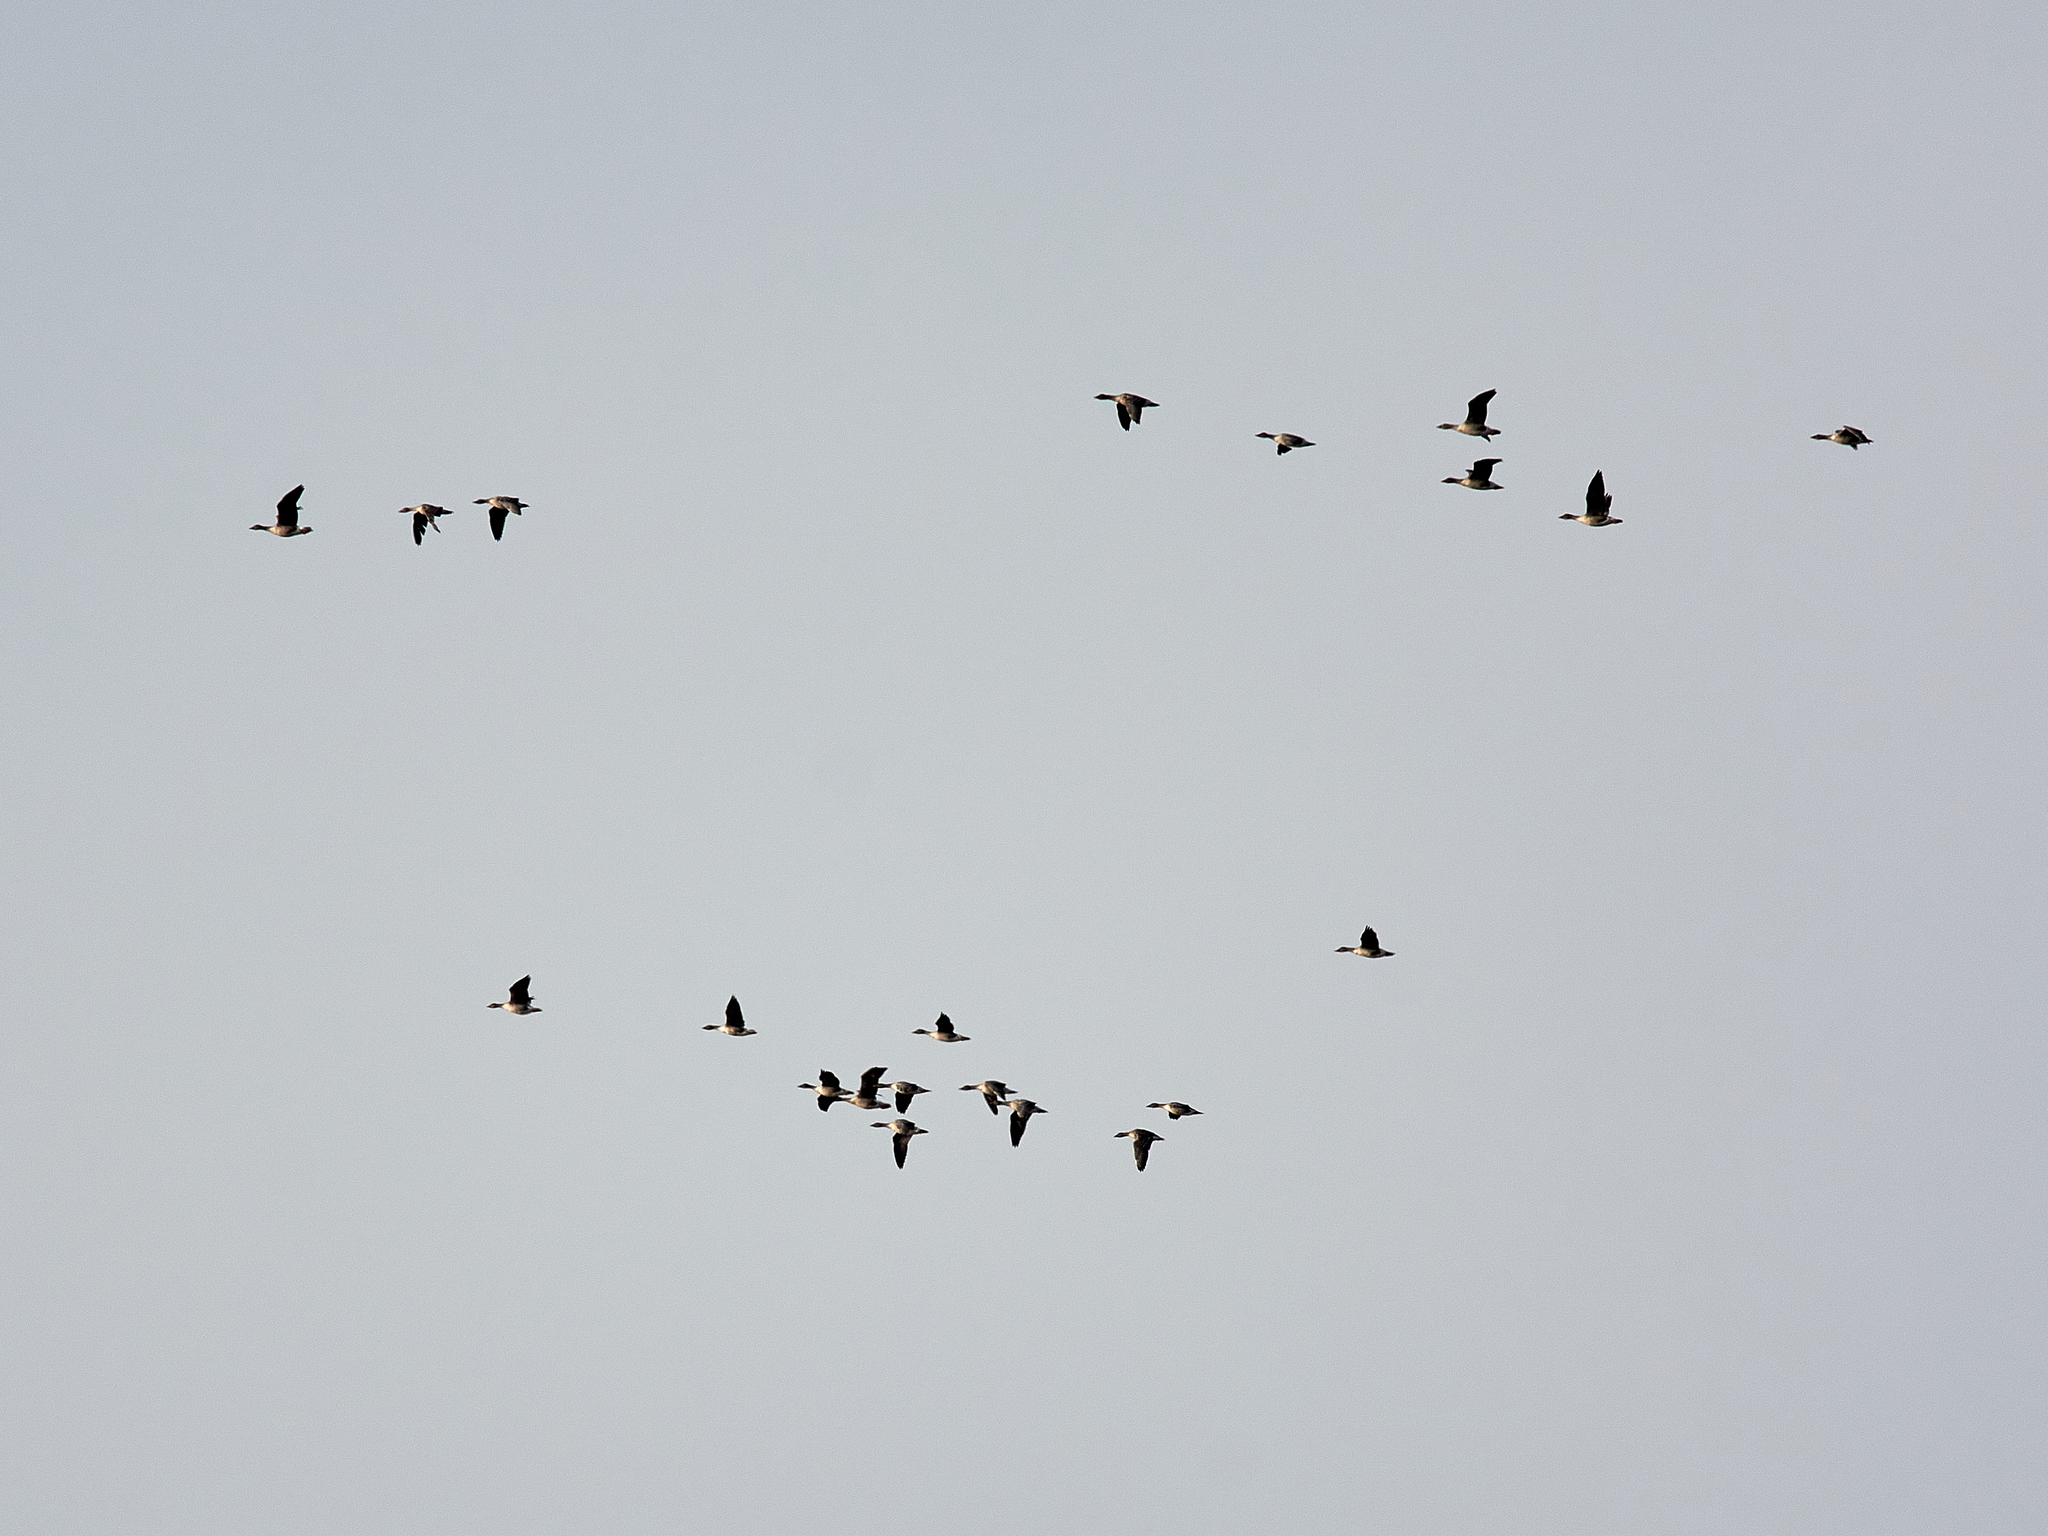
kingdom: Animalia
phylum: Chordata
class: Aves
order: Anseriformes
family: Anatidae
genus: Anser
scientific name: Anser fabalis
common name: Bean goose
